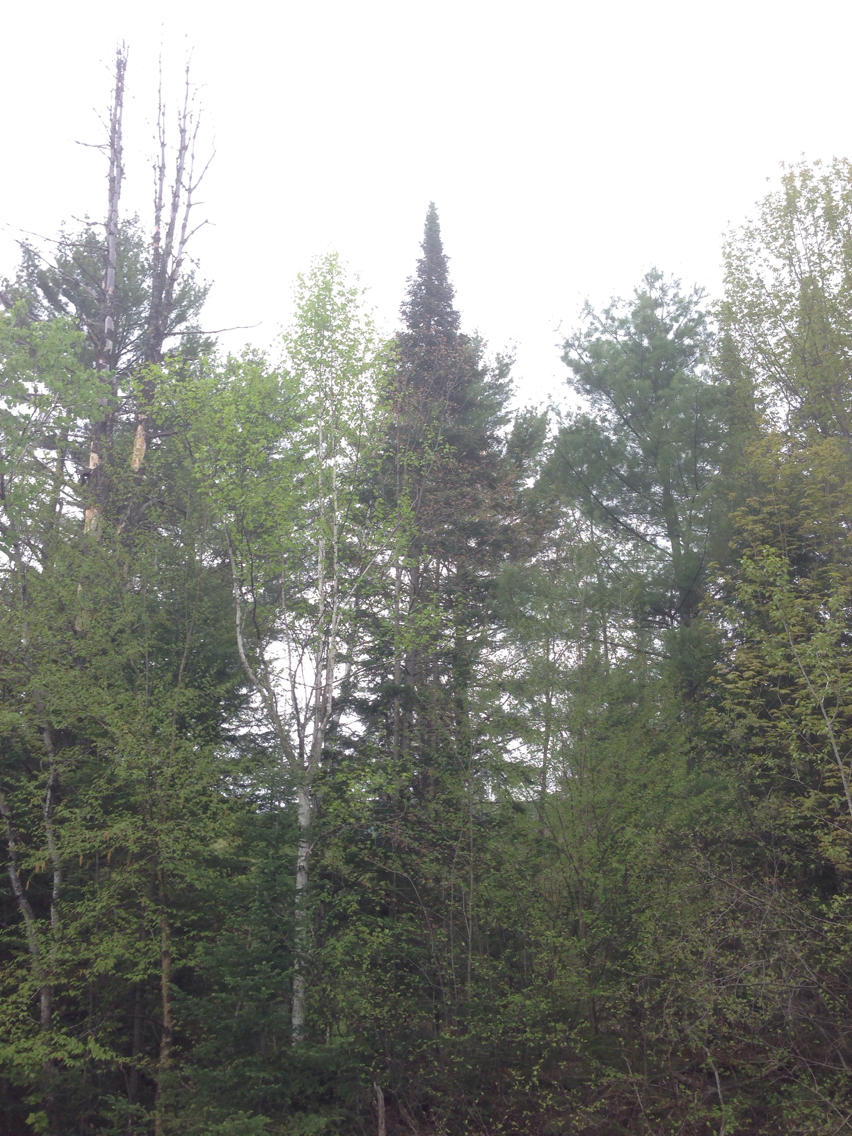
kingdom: Plantae
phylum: Tracheophyta
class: Pinopsida
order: Pinales
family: Pinaceae
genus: Abies
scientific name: Abies balsamea
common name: Balsam fir
